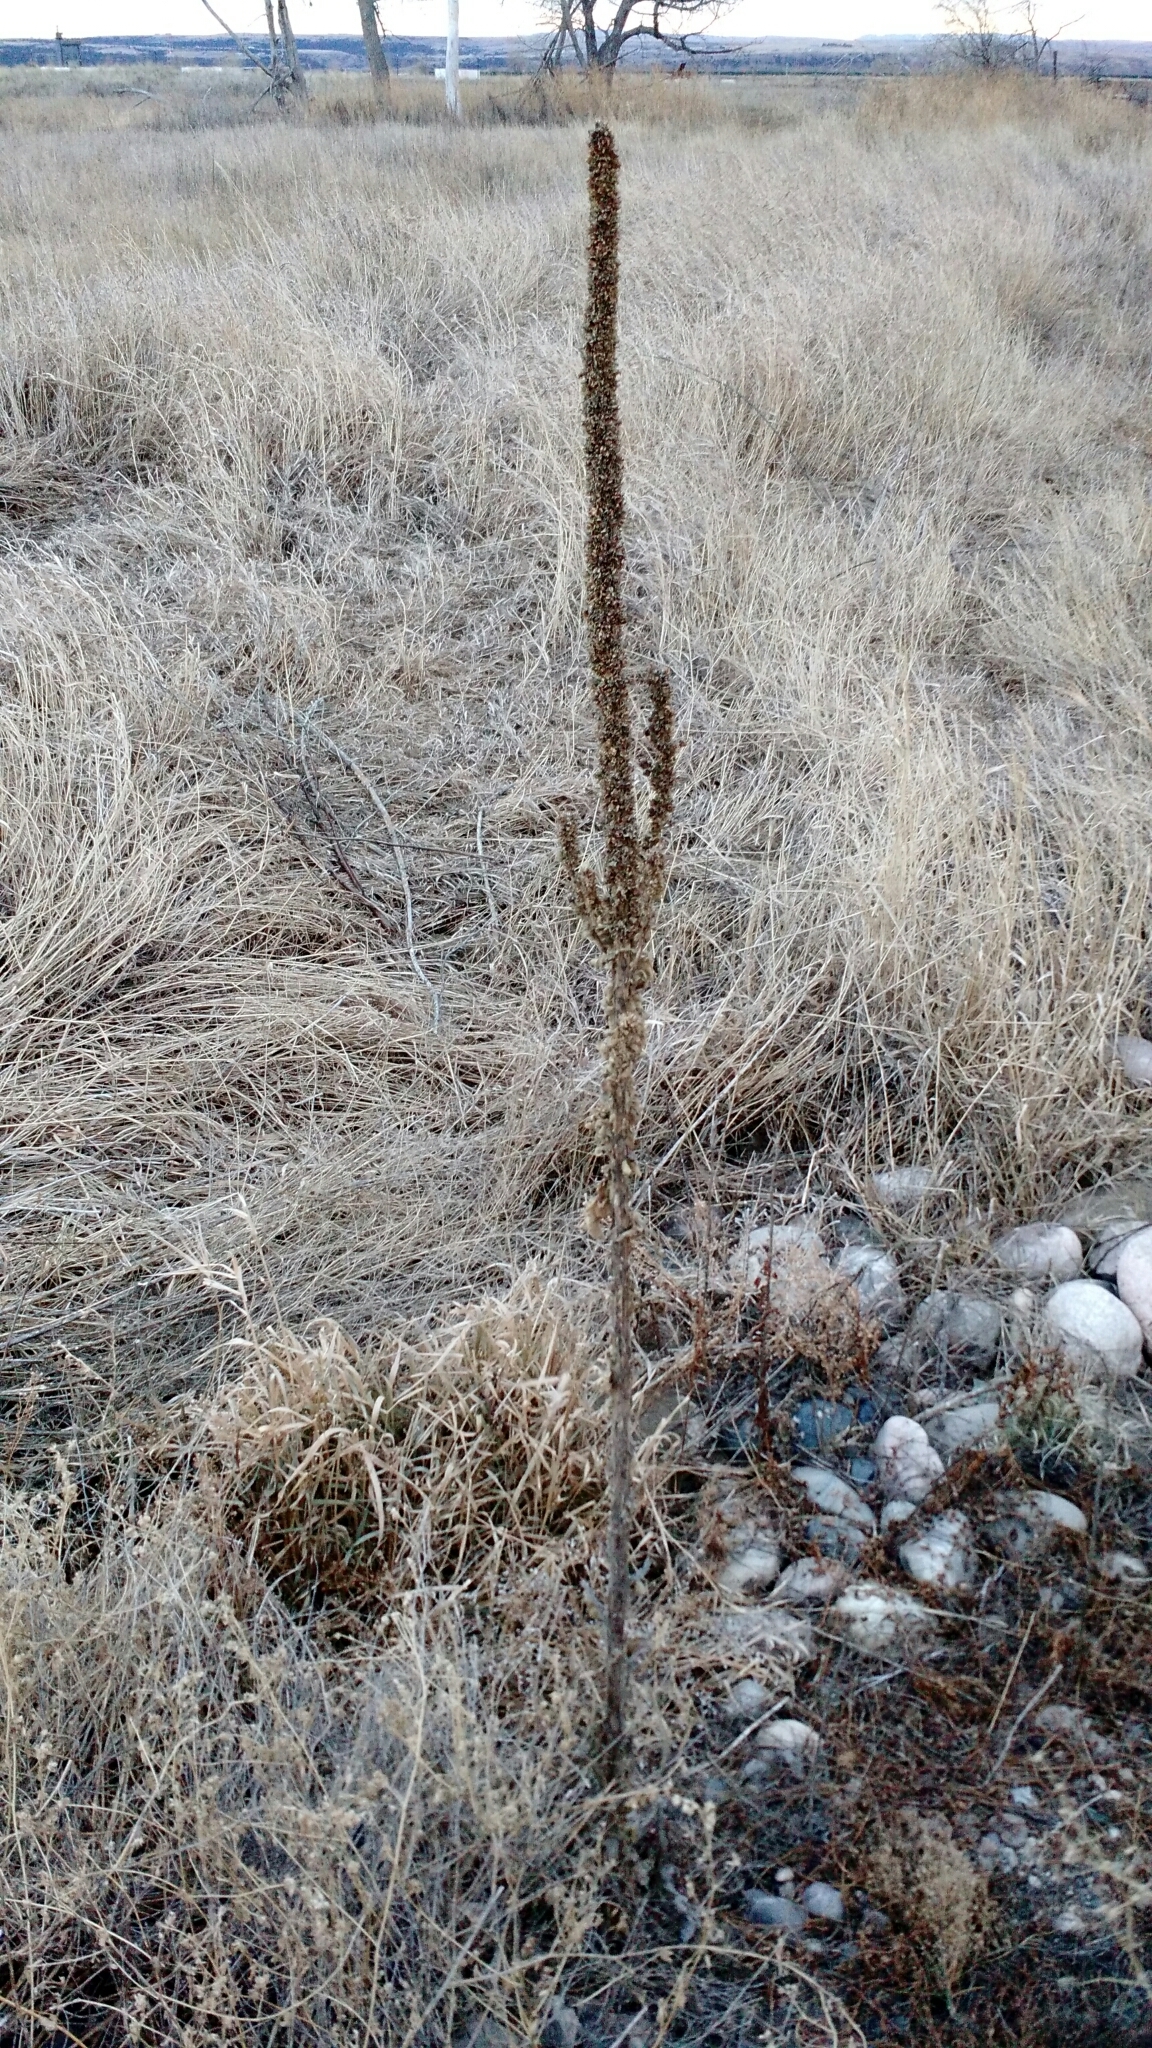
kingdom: Plantae
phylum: Tracheophyta
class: Magnoliopsida
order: Lamiales
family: Scrophulariaceae
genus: Verbascum
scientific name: Verbascum thapsus
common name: Common mullein
